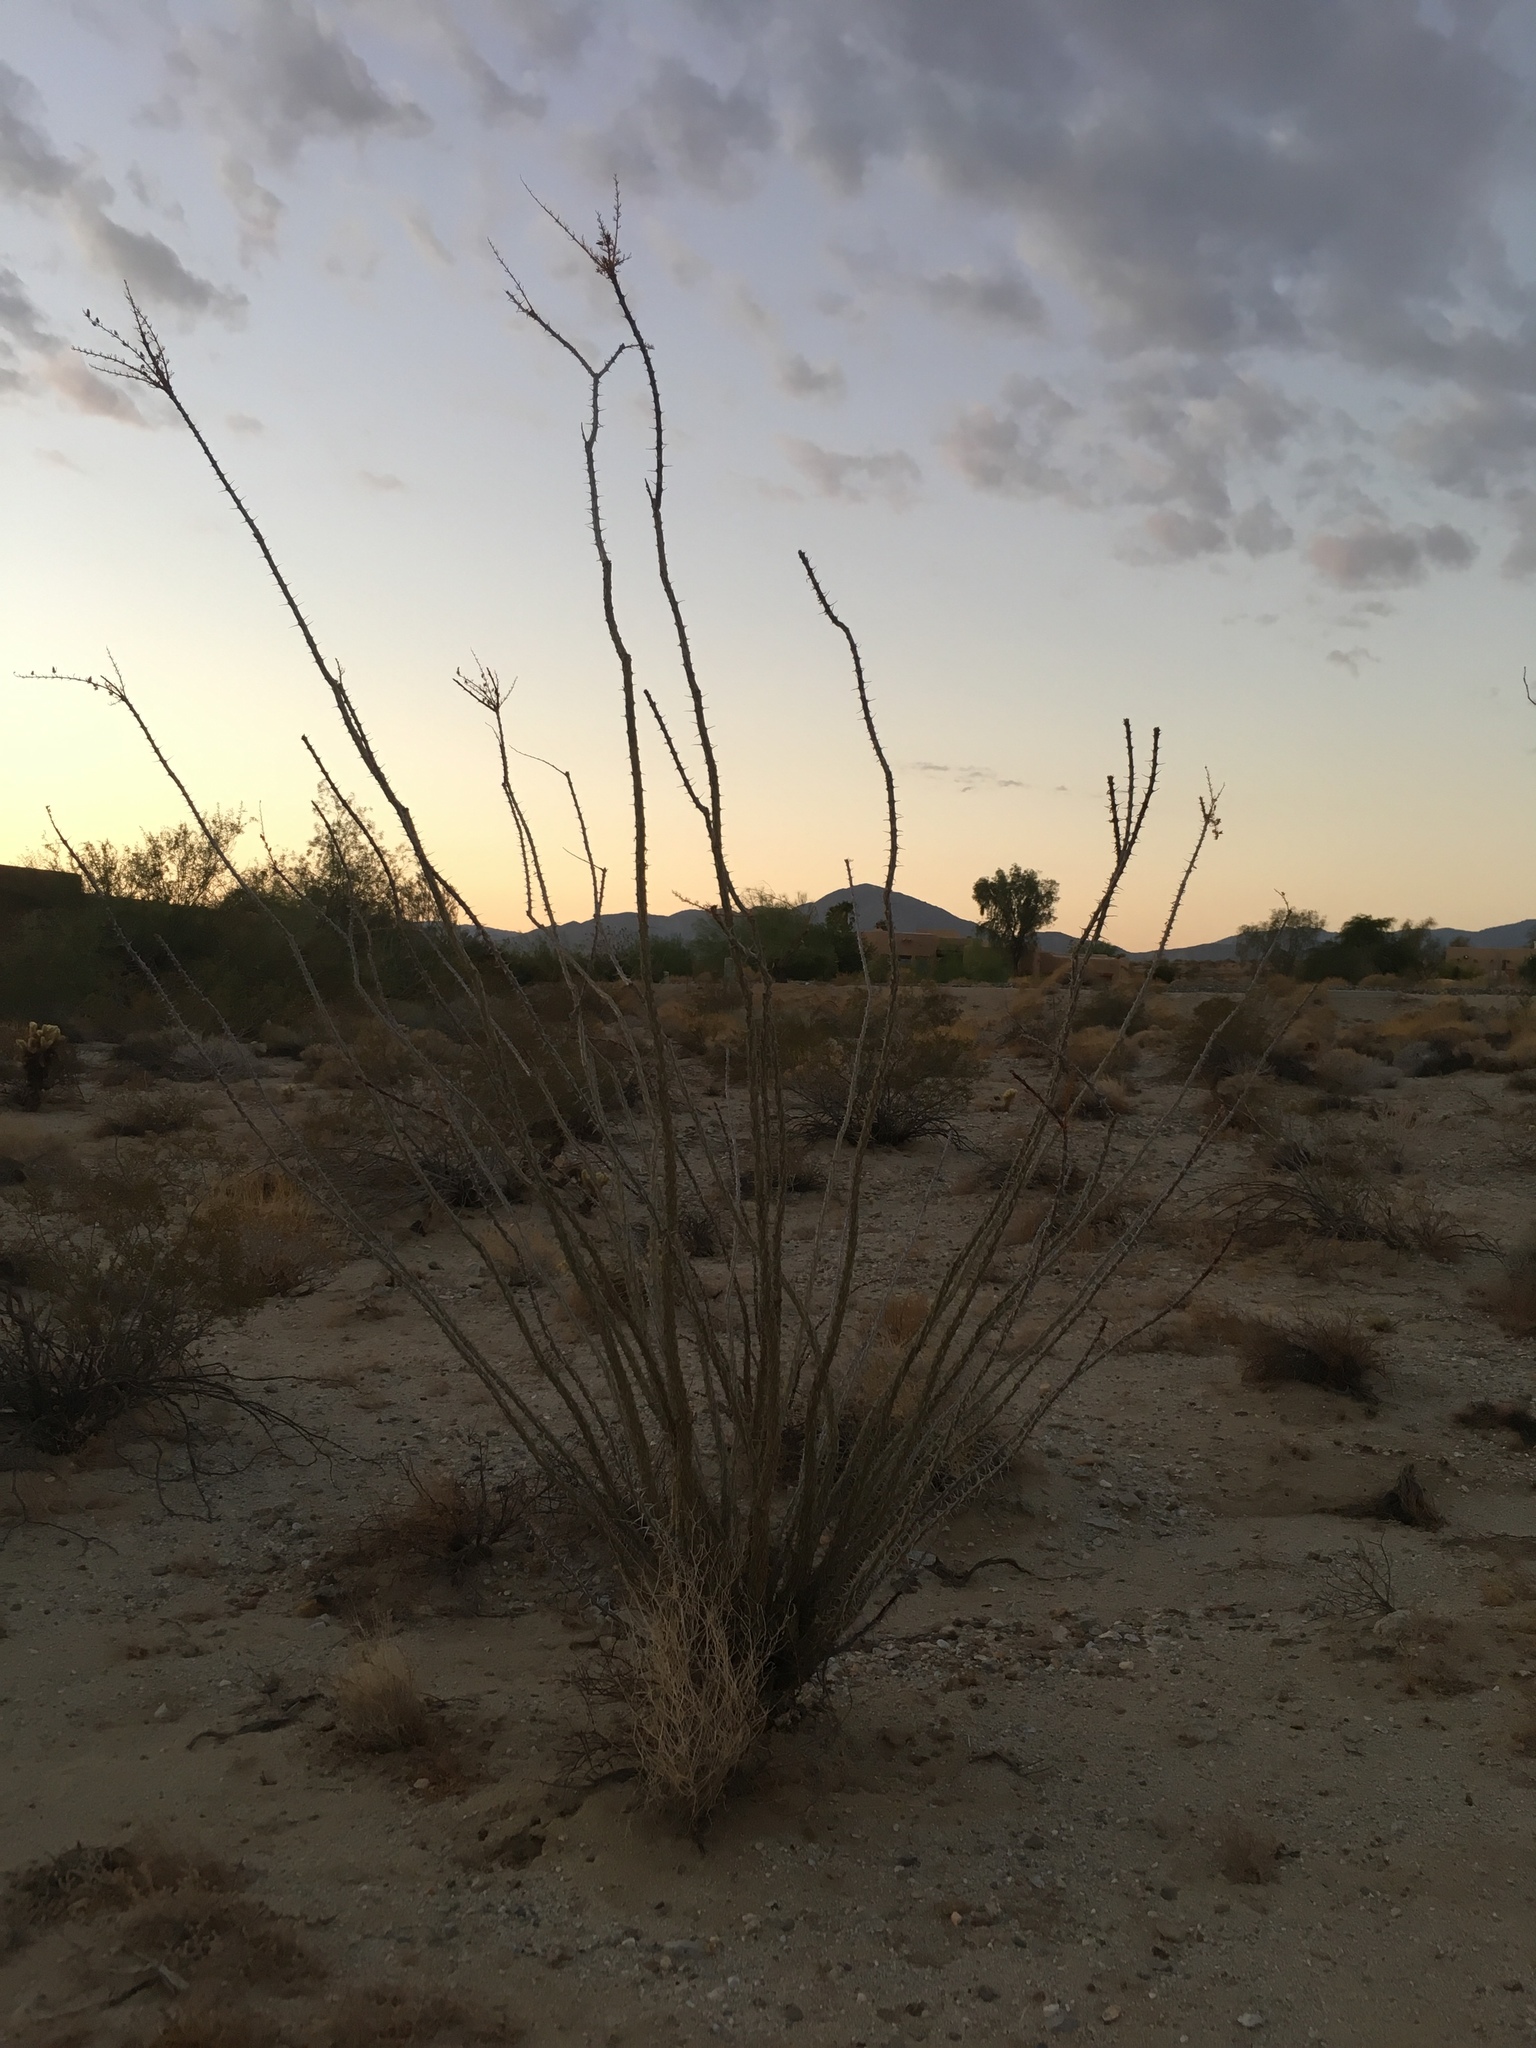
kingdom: Plantae
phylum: Tracheophyta
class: Magnoliopsida
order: Ericales
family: Fouquieriaceae
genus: Fouquieria
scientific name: Fouquieria splendens
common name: Vine-cactus
